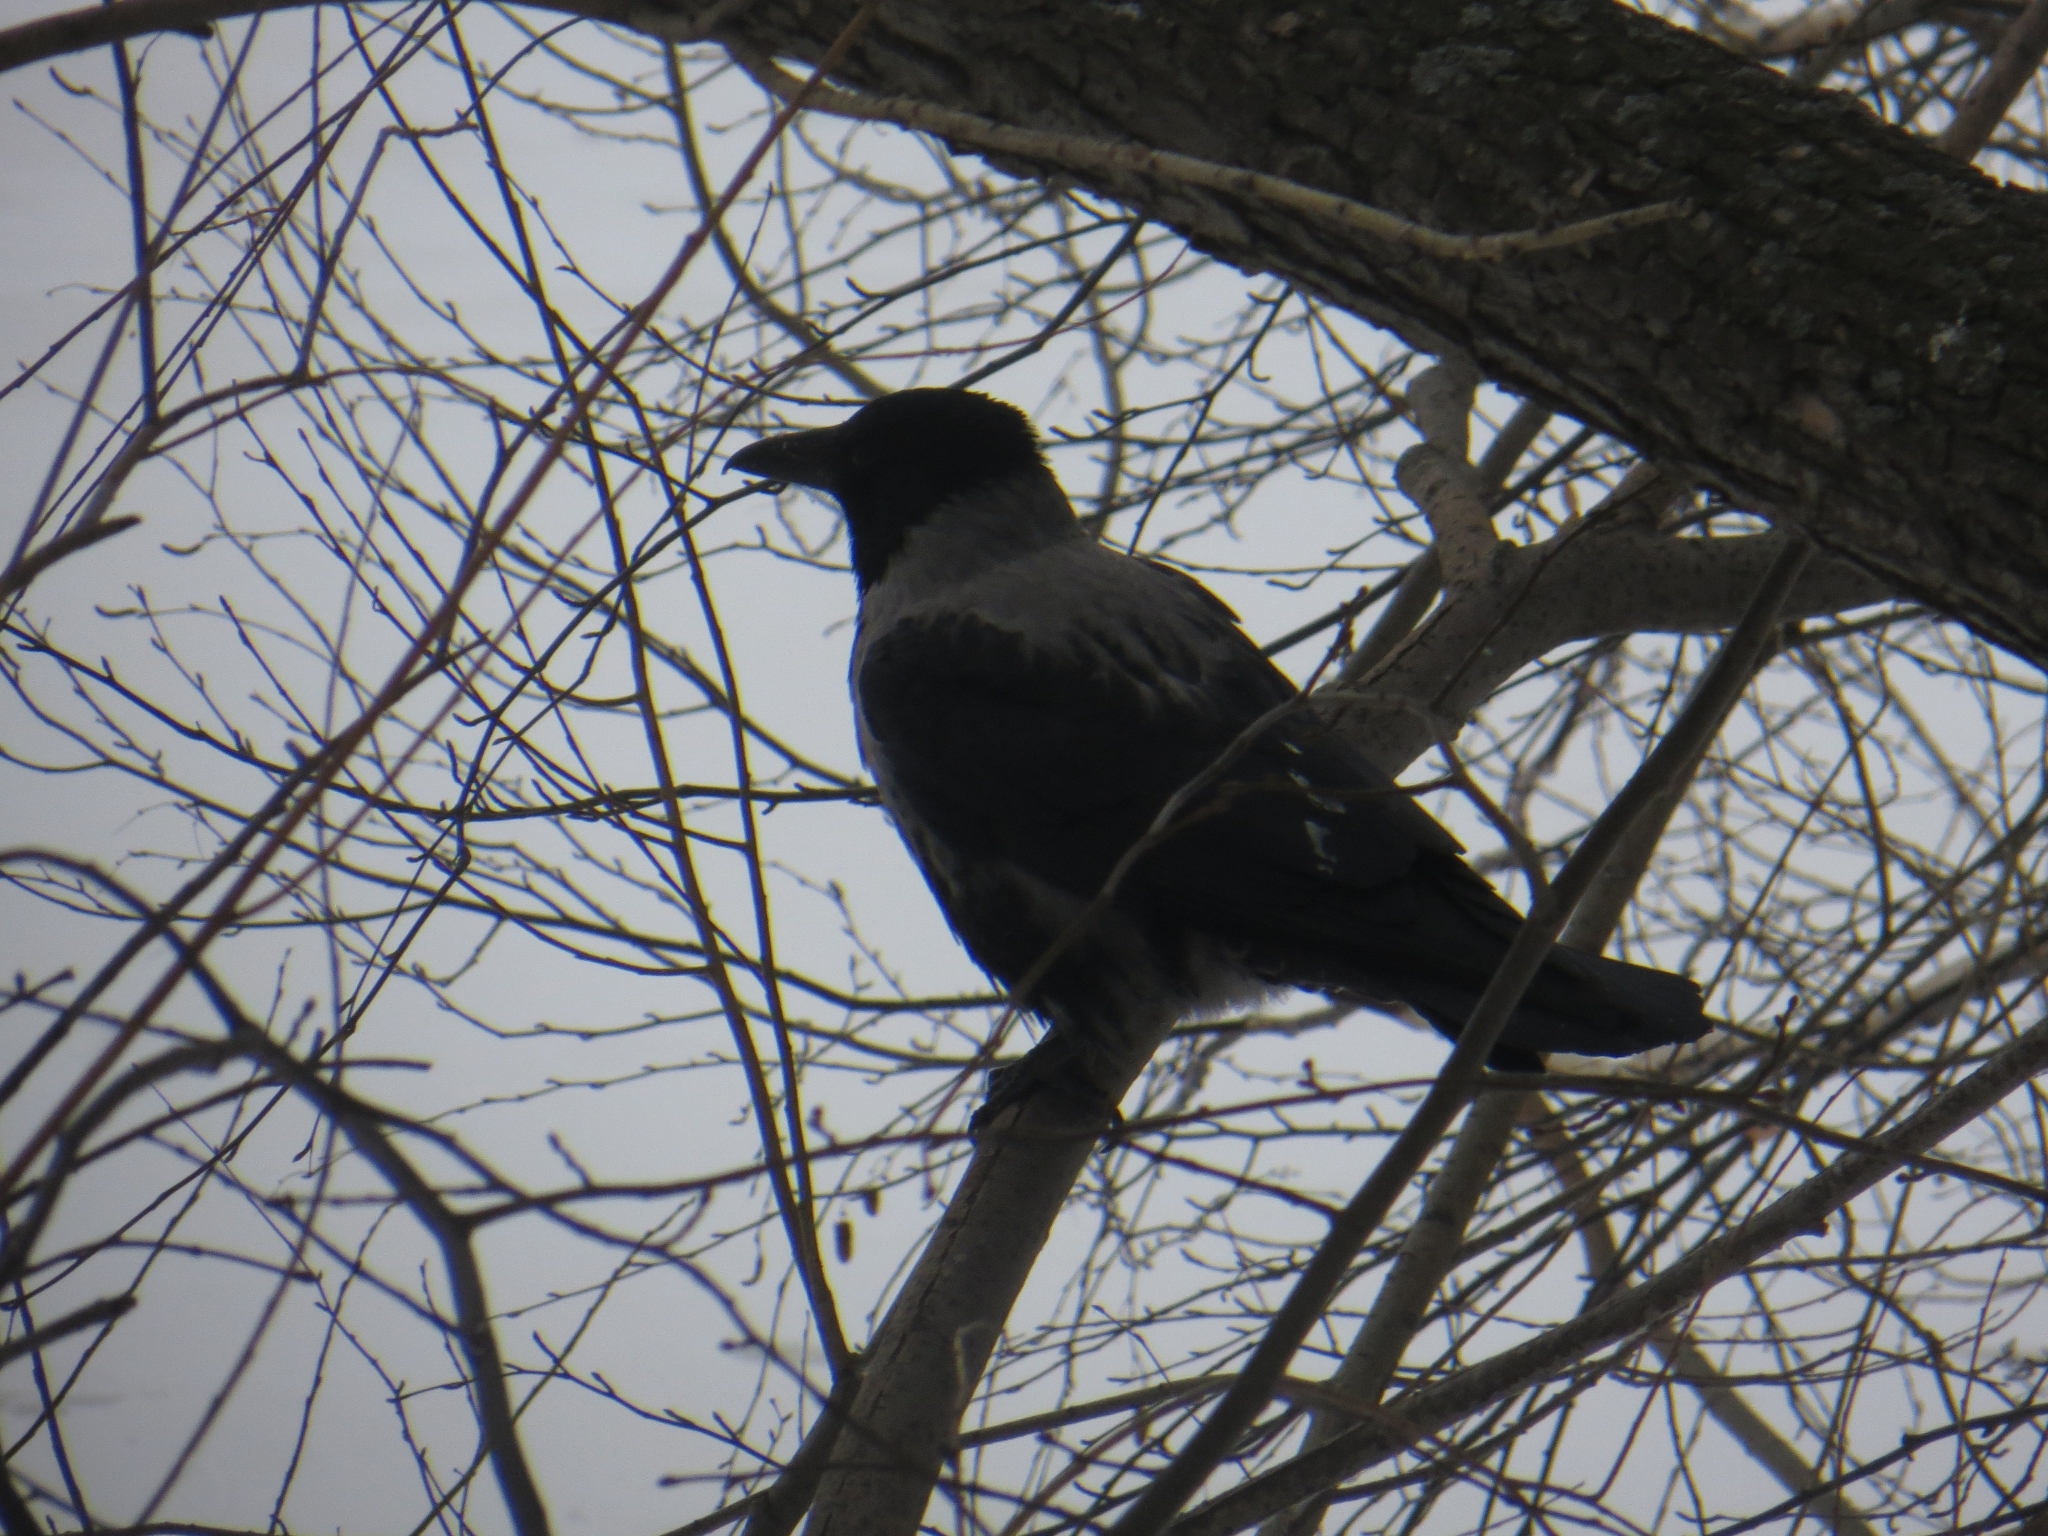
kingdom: Animalia
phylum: Chordata
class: Aves
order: Passeriformes
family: Corvidae
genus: Corvus
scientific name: Corvus
